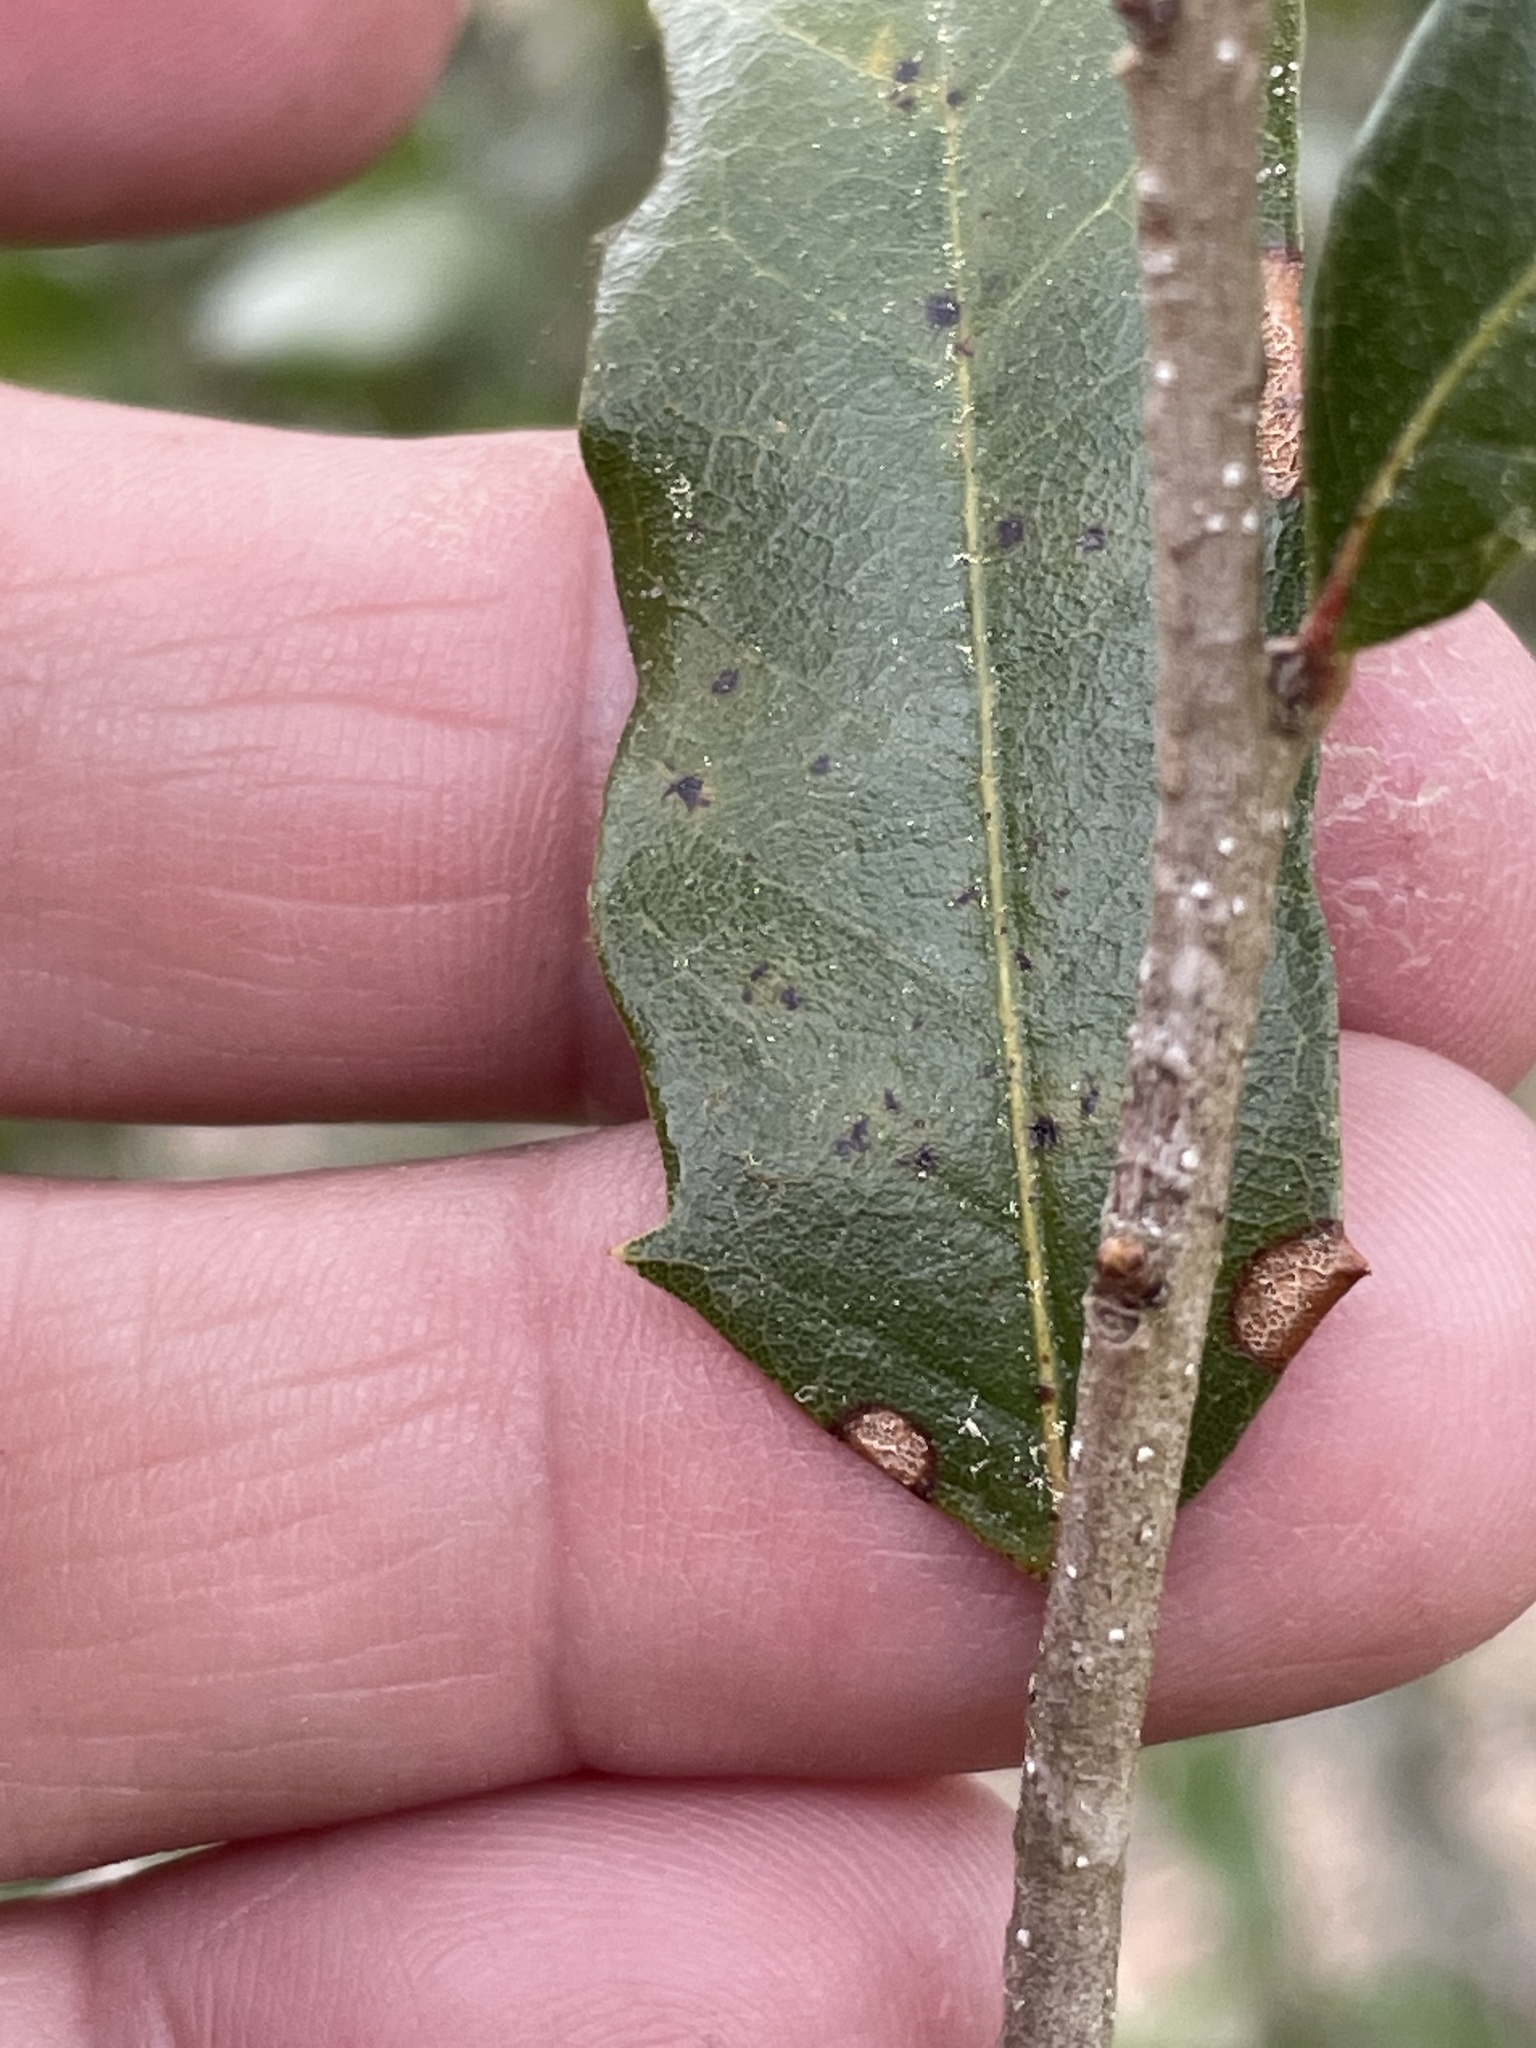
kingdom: Plantae
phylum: Tracheophyta
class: Magnoliopsida
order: Fagales
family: Fagaceae
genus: Quercus
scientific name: Quercus virginiana
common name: Southern live oak
